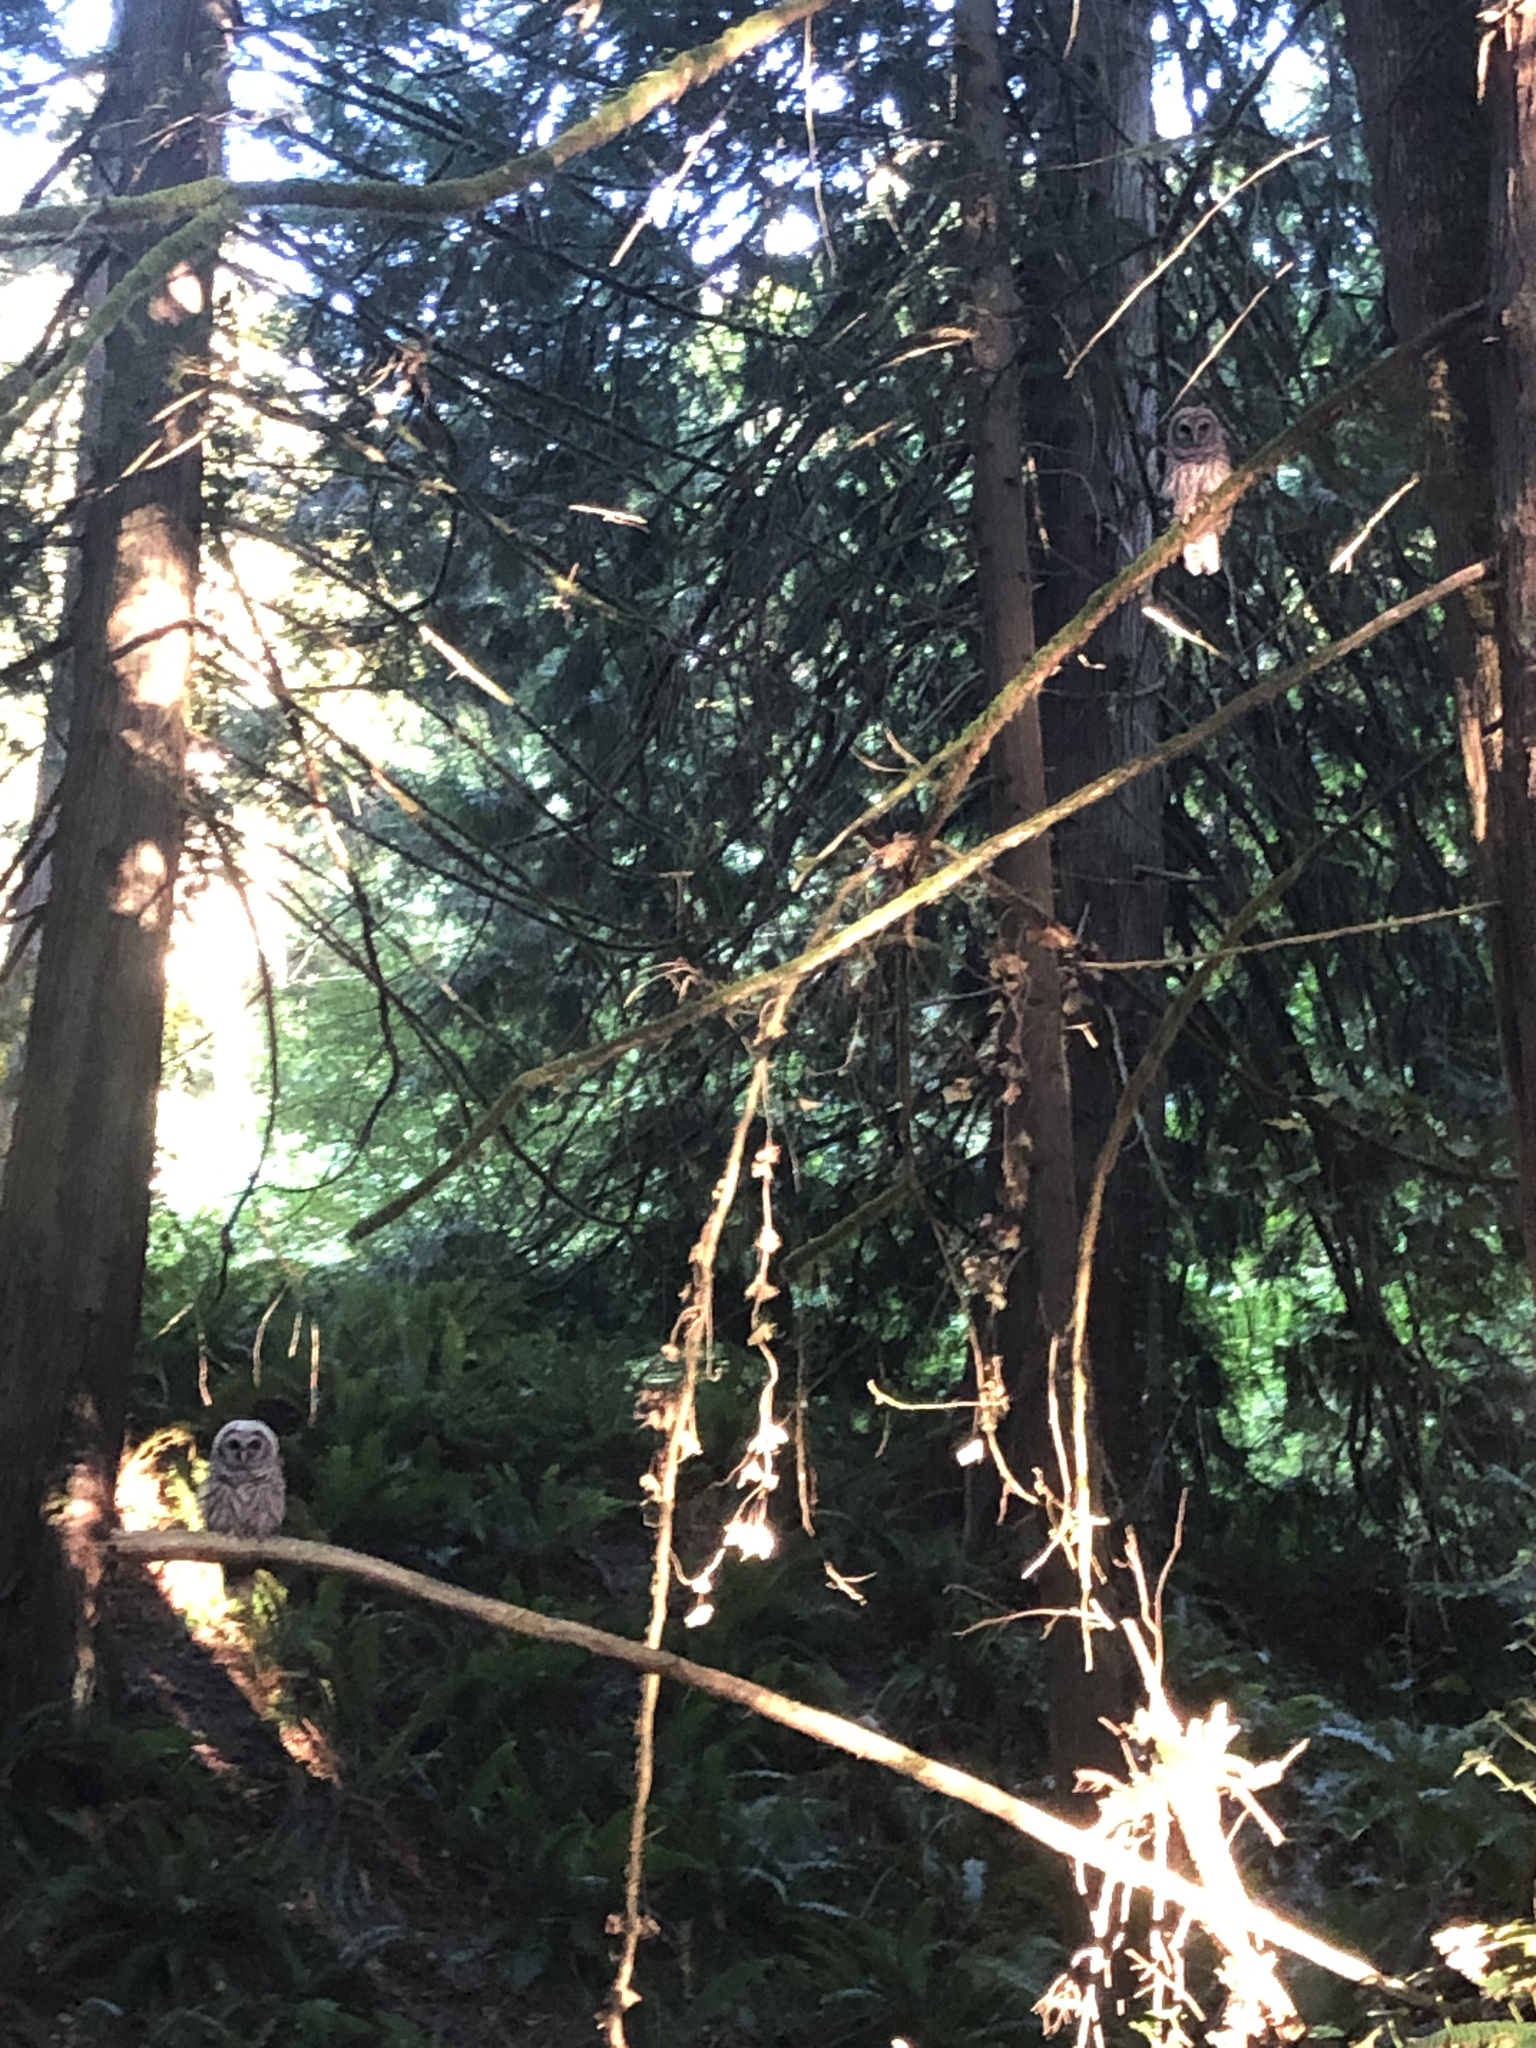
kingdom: Animalia
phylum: Chordata
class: Aves
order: Strigiformes
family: Strigidae
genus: Strix
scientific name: Strix varia
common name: Barred owl
